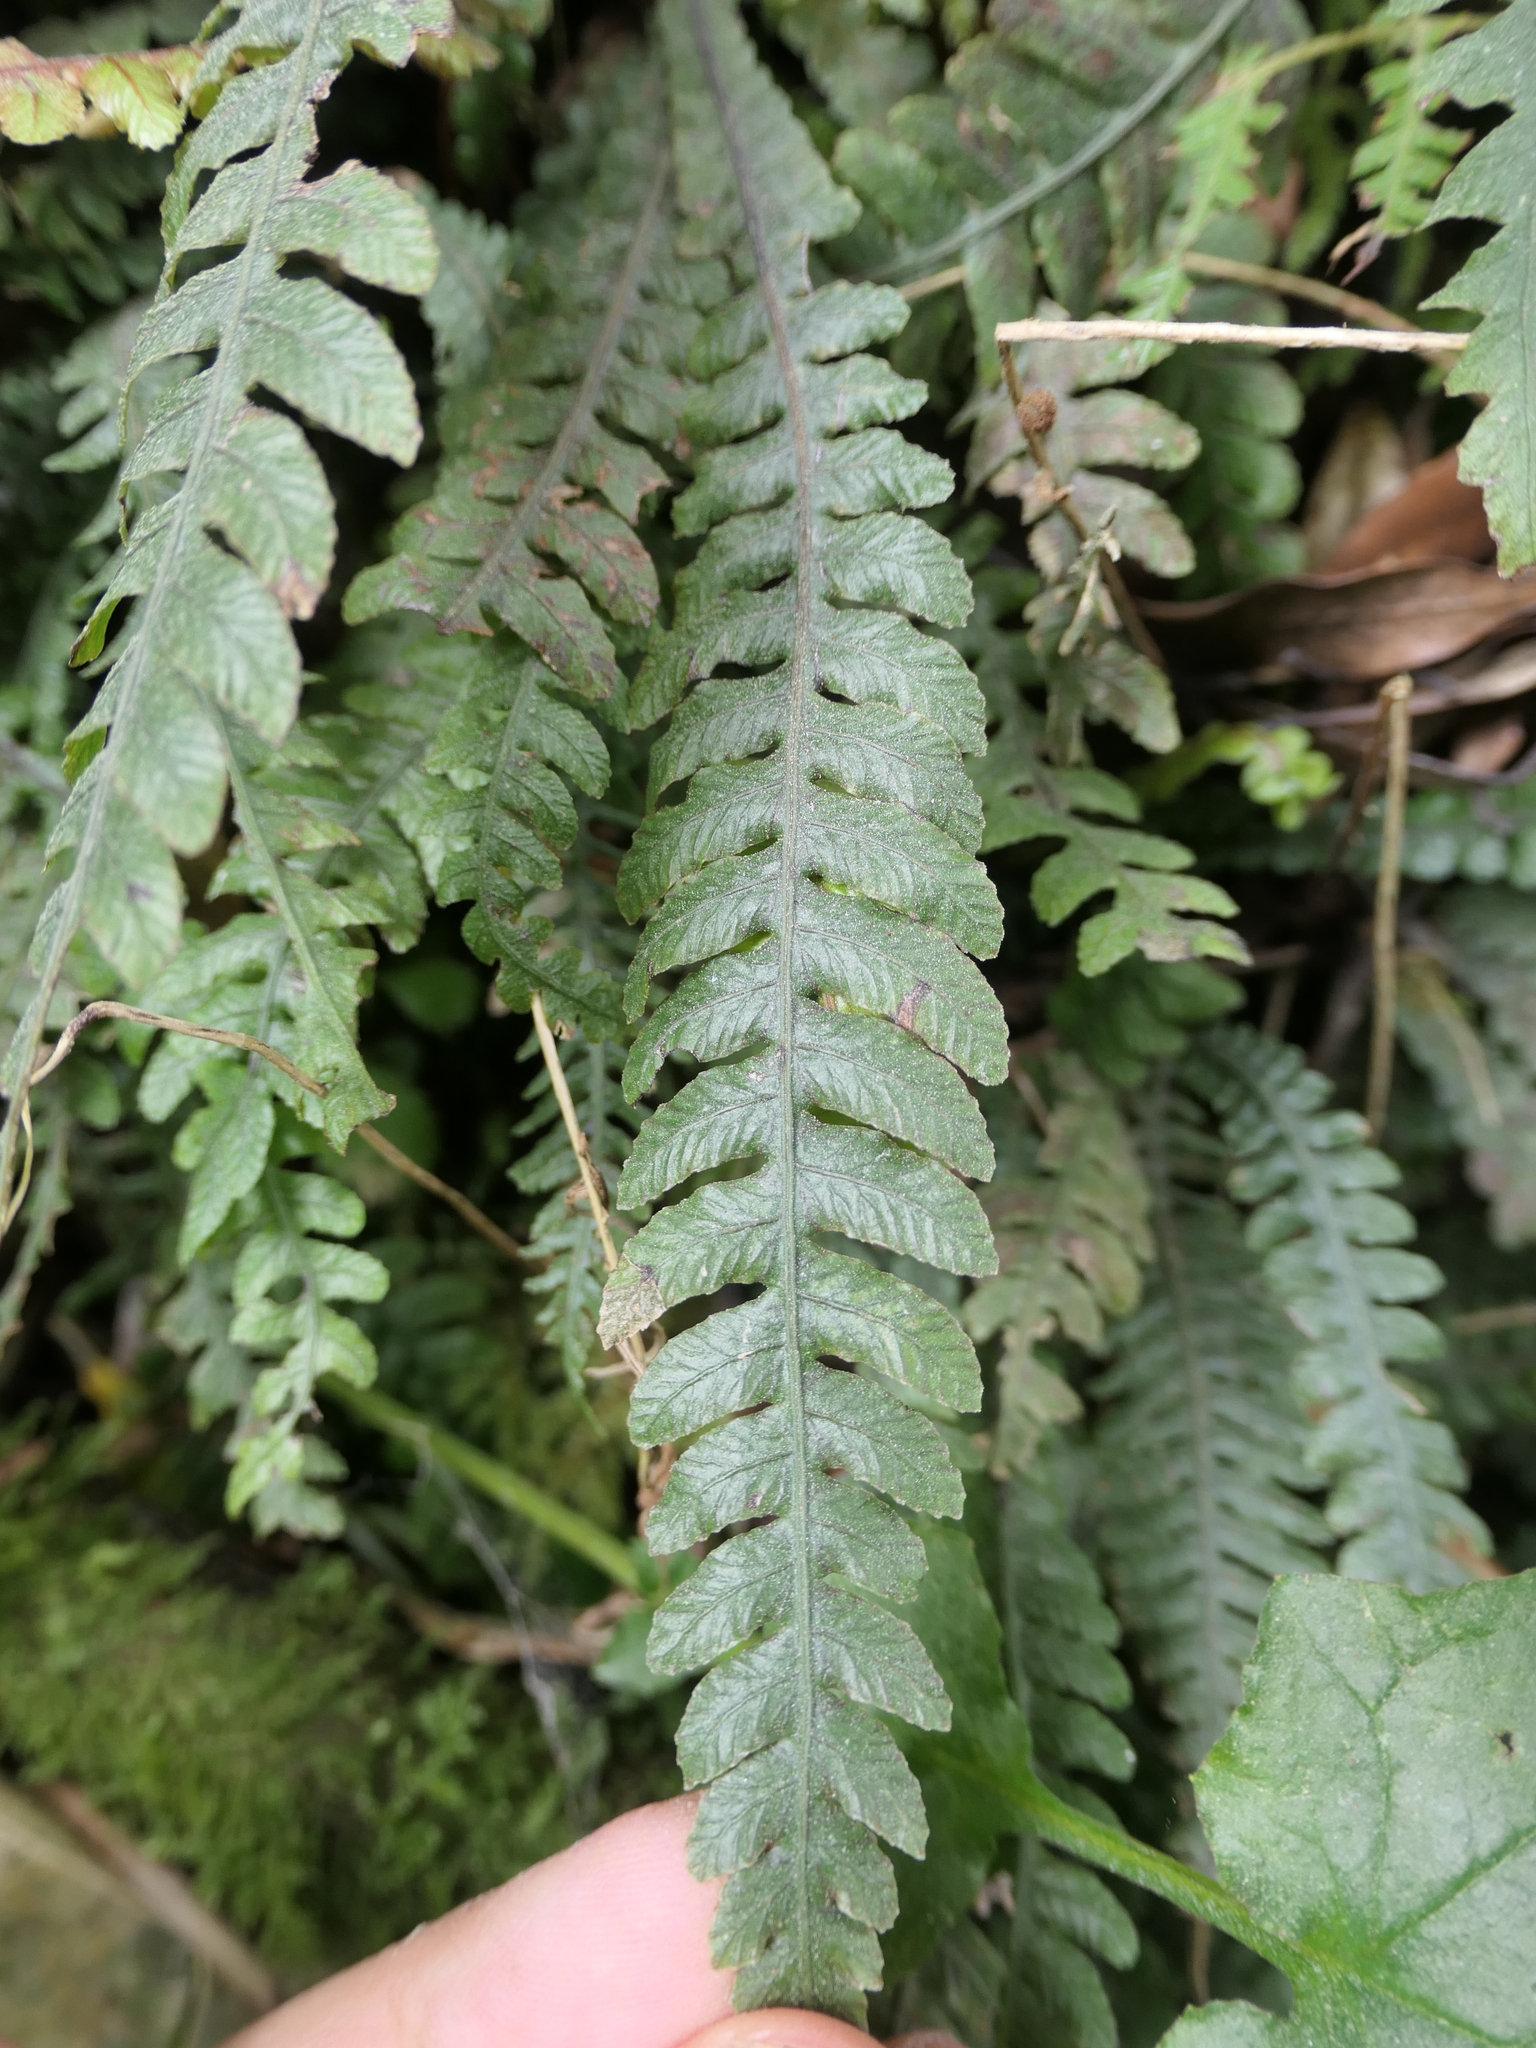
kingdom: Plantae
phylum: Tracheophyta
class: Polypodiopsida
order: Polypodiales
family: Blechnaceae
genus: Austroblechnum
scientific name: Austroblechnum lanceolatum
